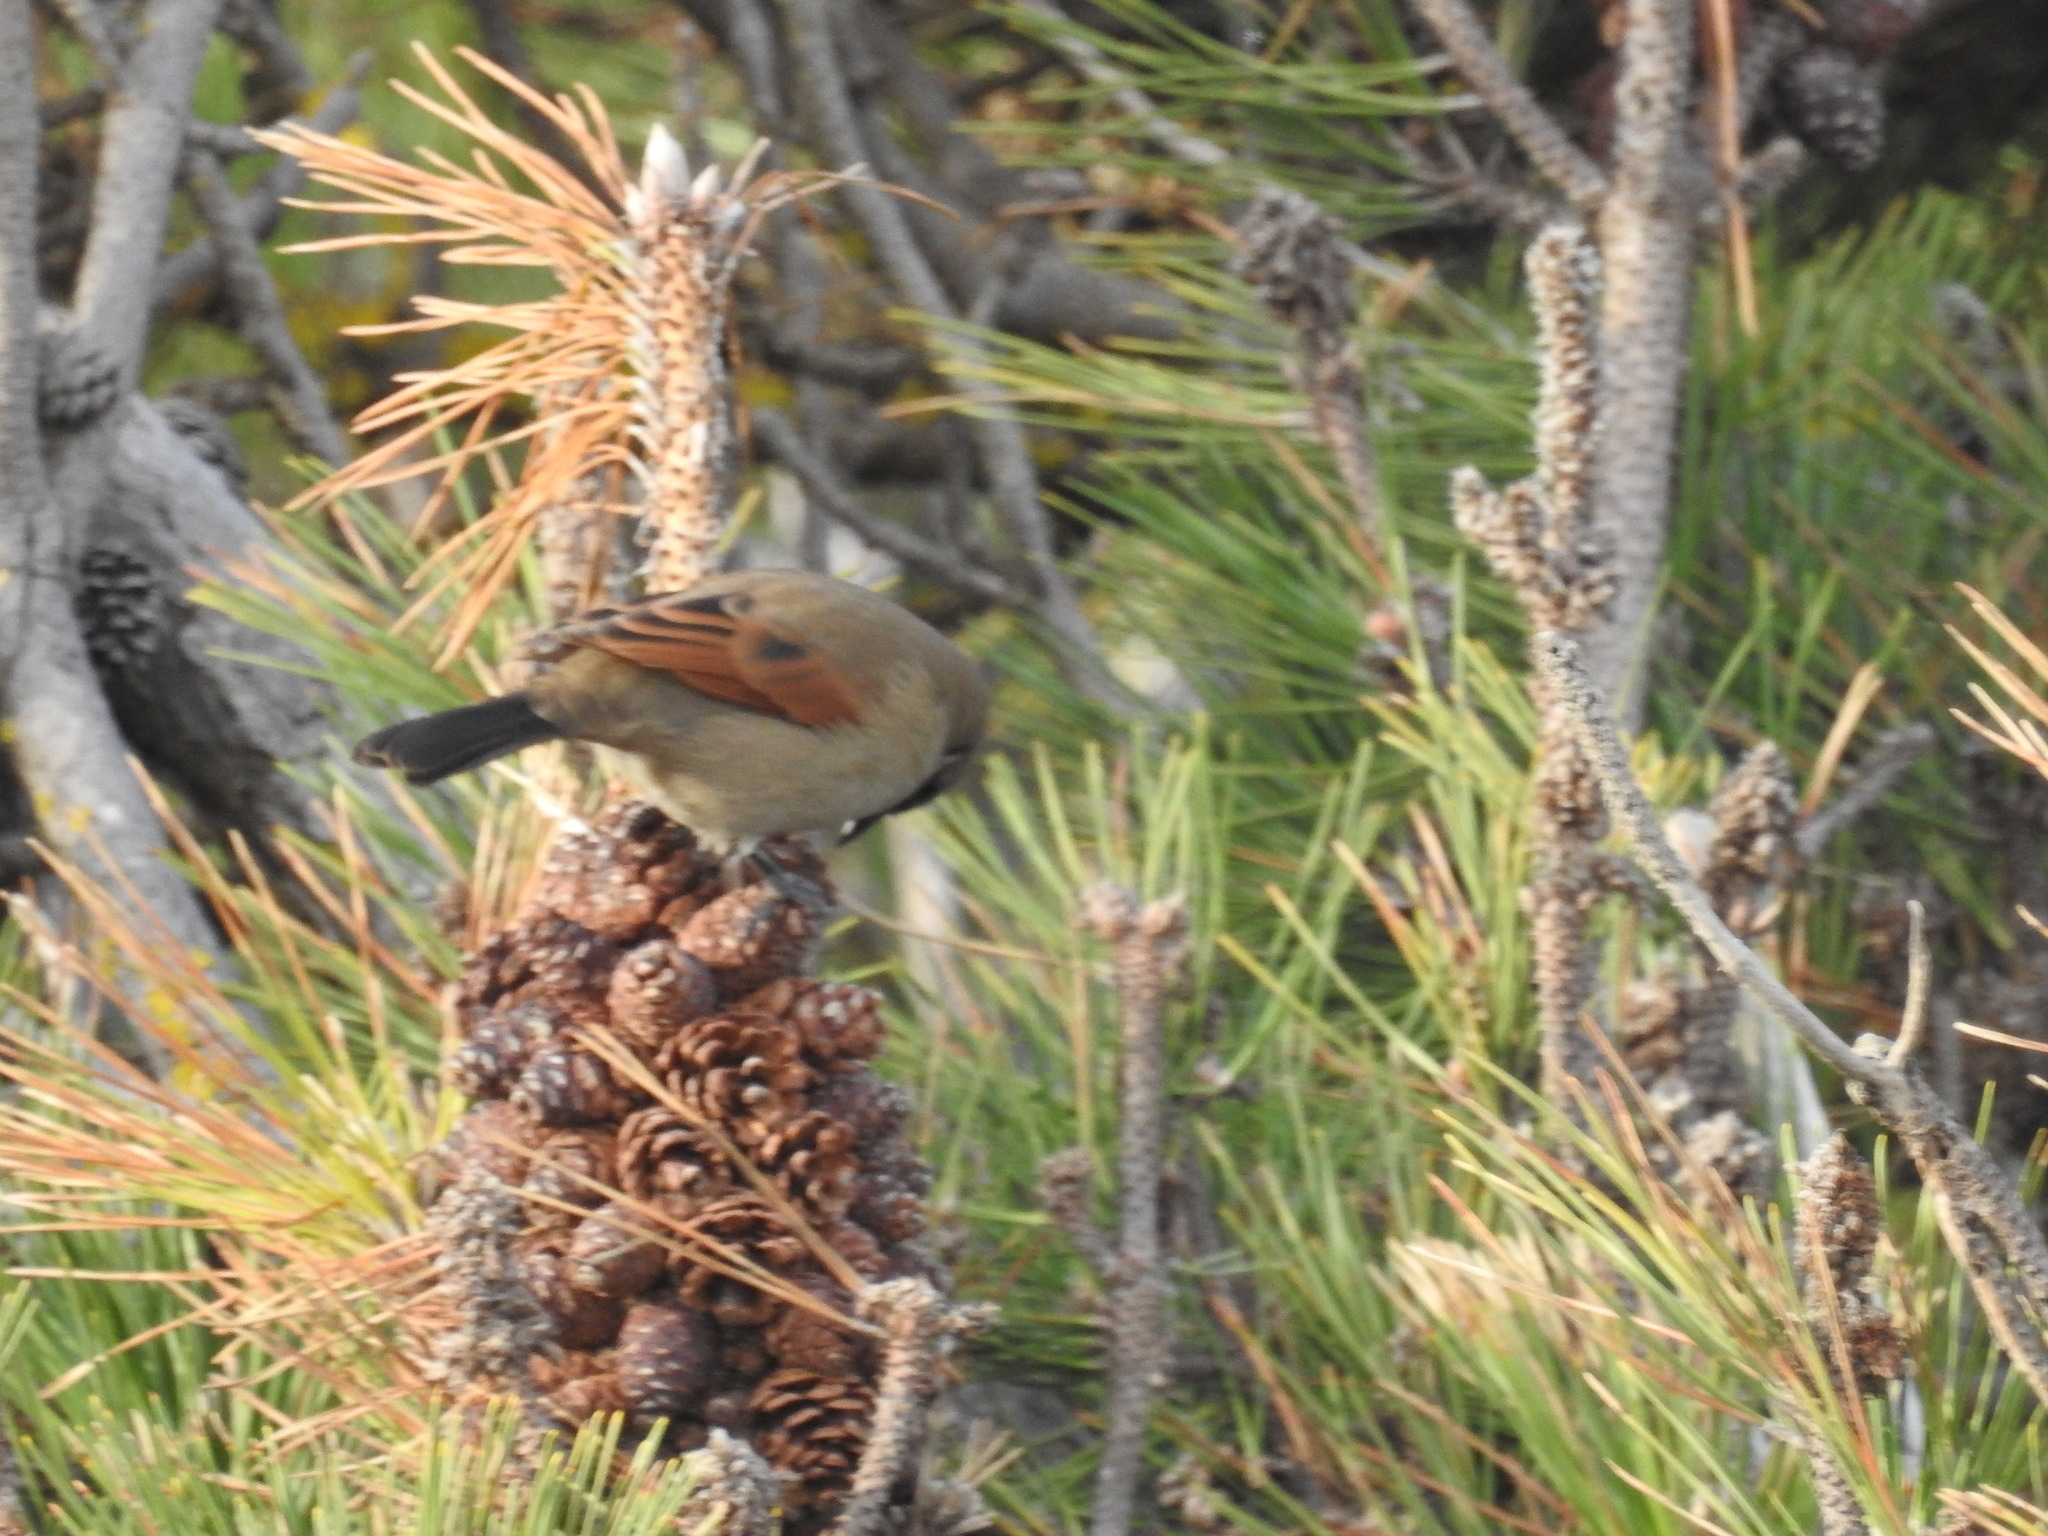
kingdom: Animalia
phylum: Chordata
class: Aves
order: Passeriformes
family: Icteridae
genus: Agelaioides
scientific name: Agelaioides badius
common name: Baywing
